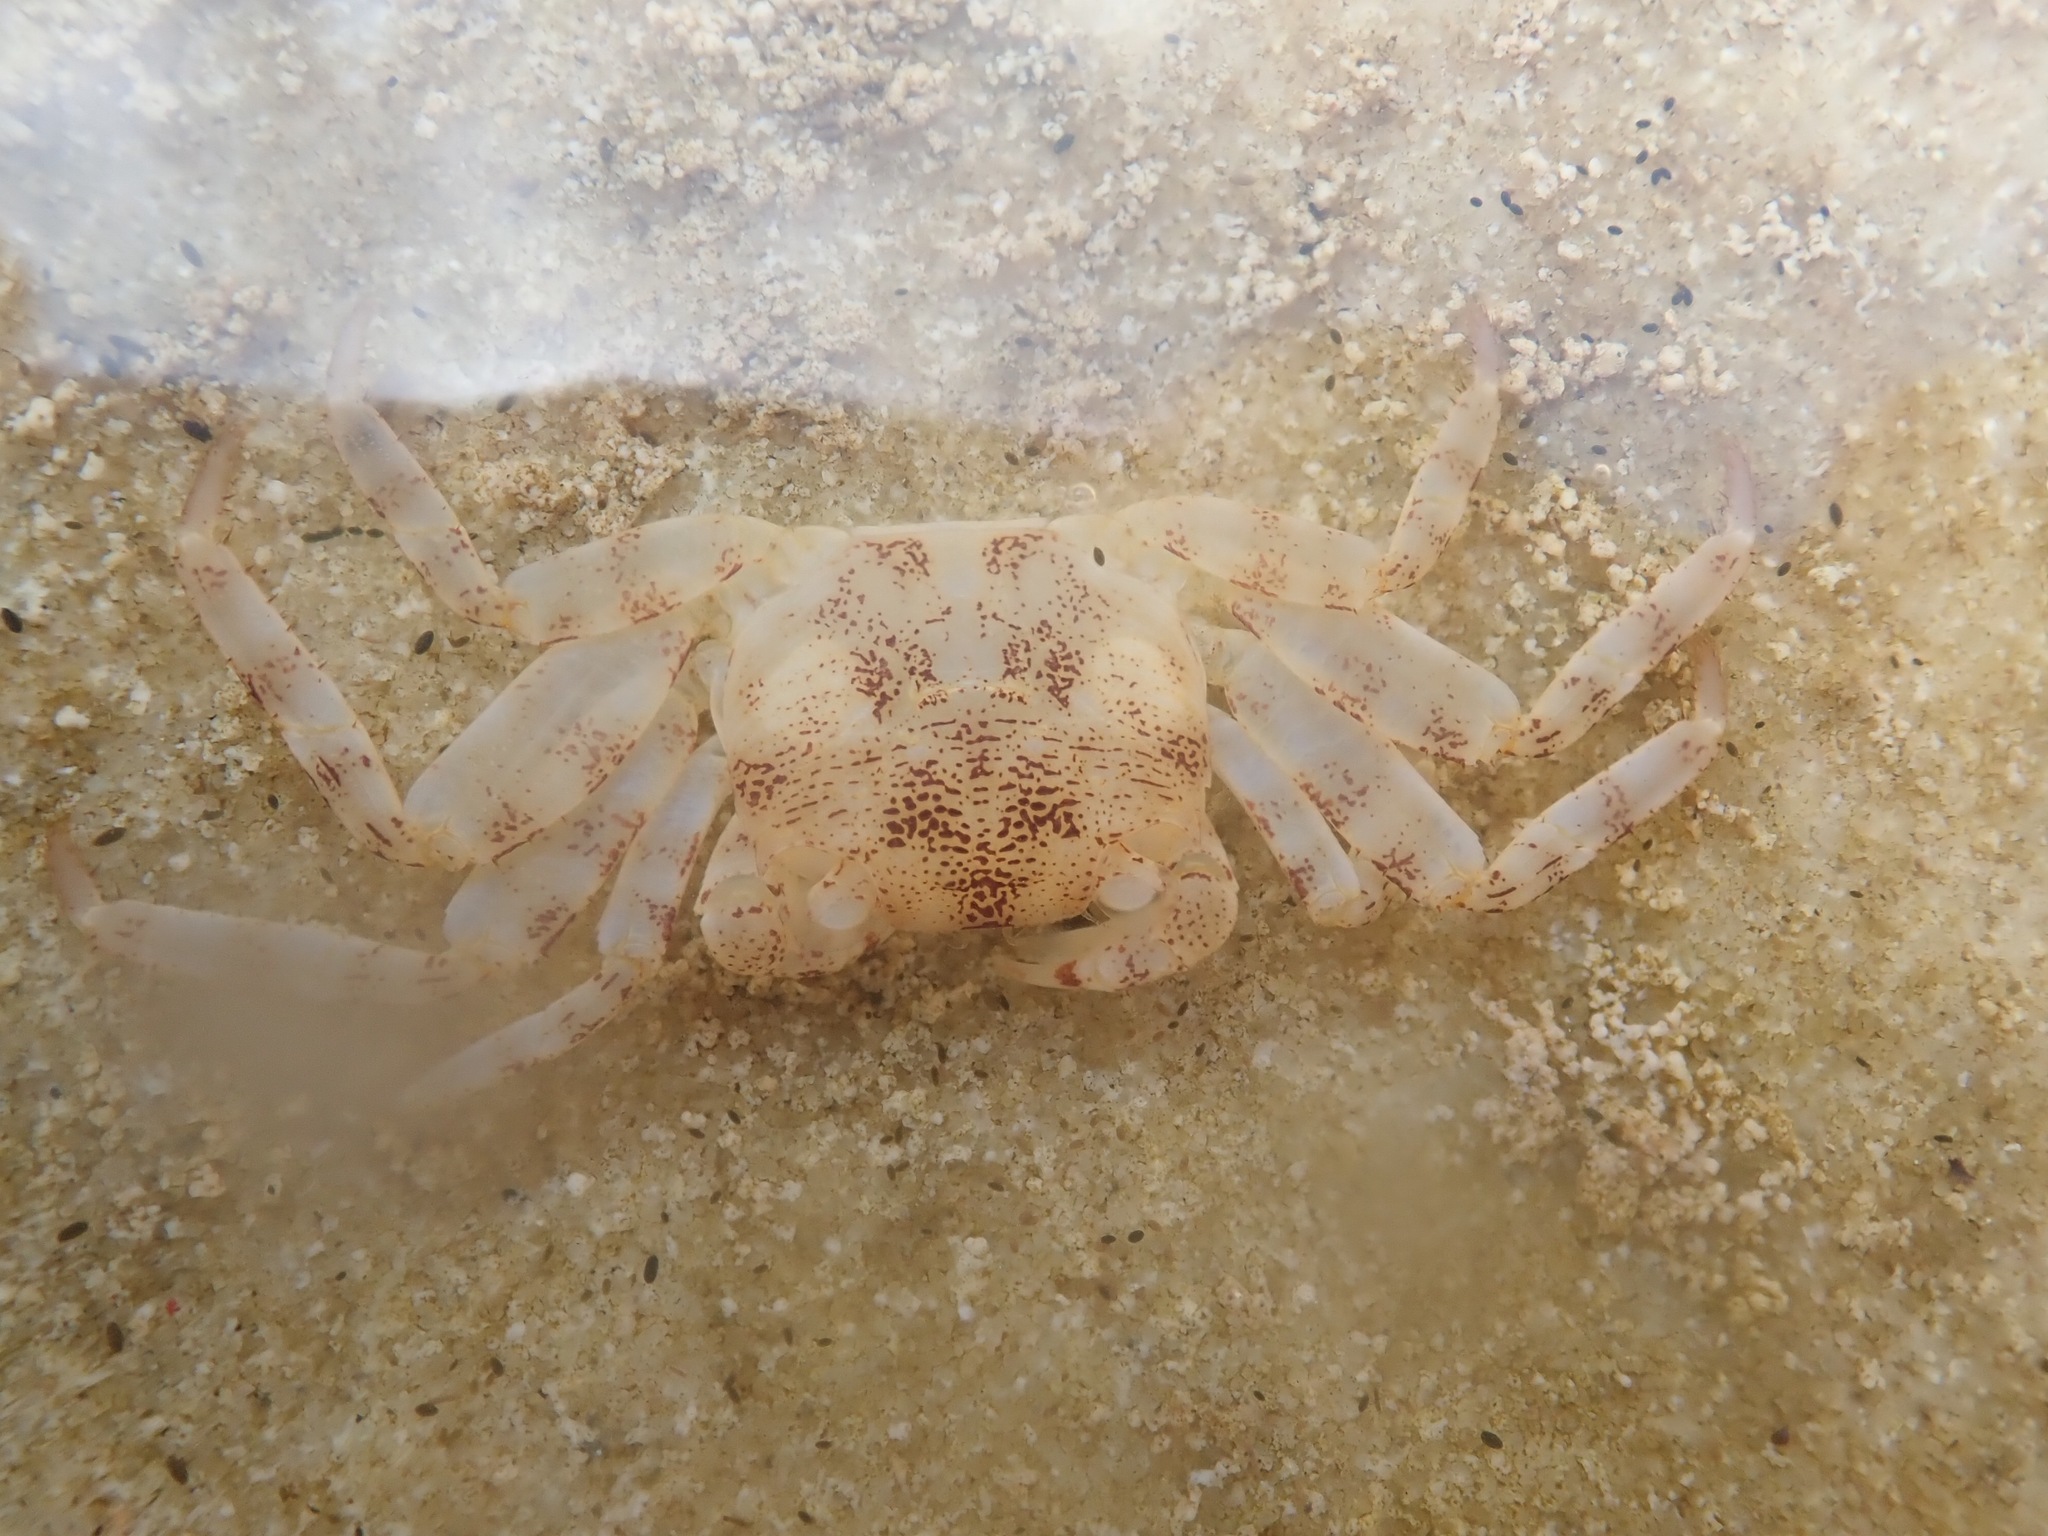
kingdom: Animalia
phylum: Arthropoda
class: Malacostraca
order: Decapoda
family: Grapsidae
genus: Leptograpsus
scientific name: Leptograpsus variegatus
